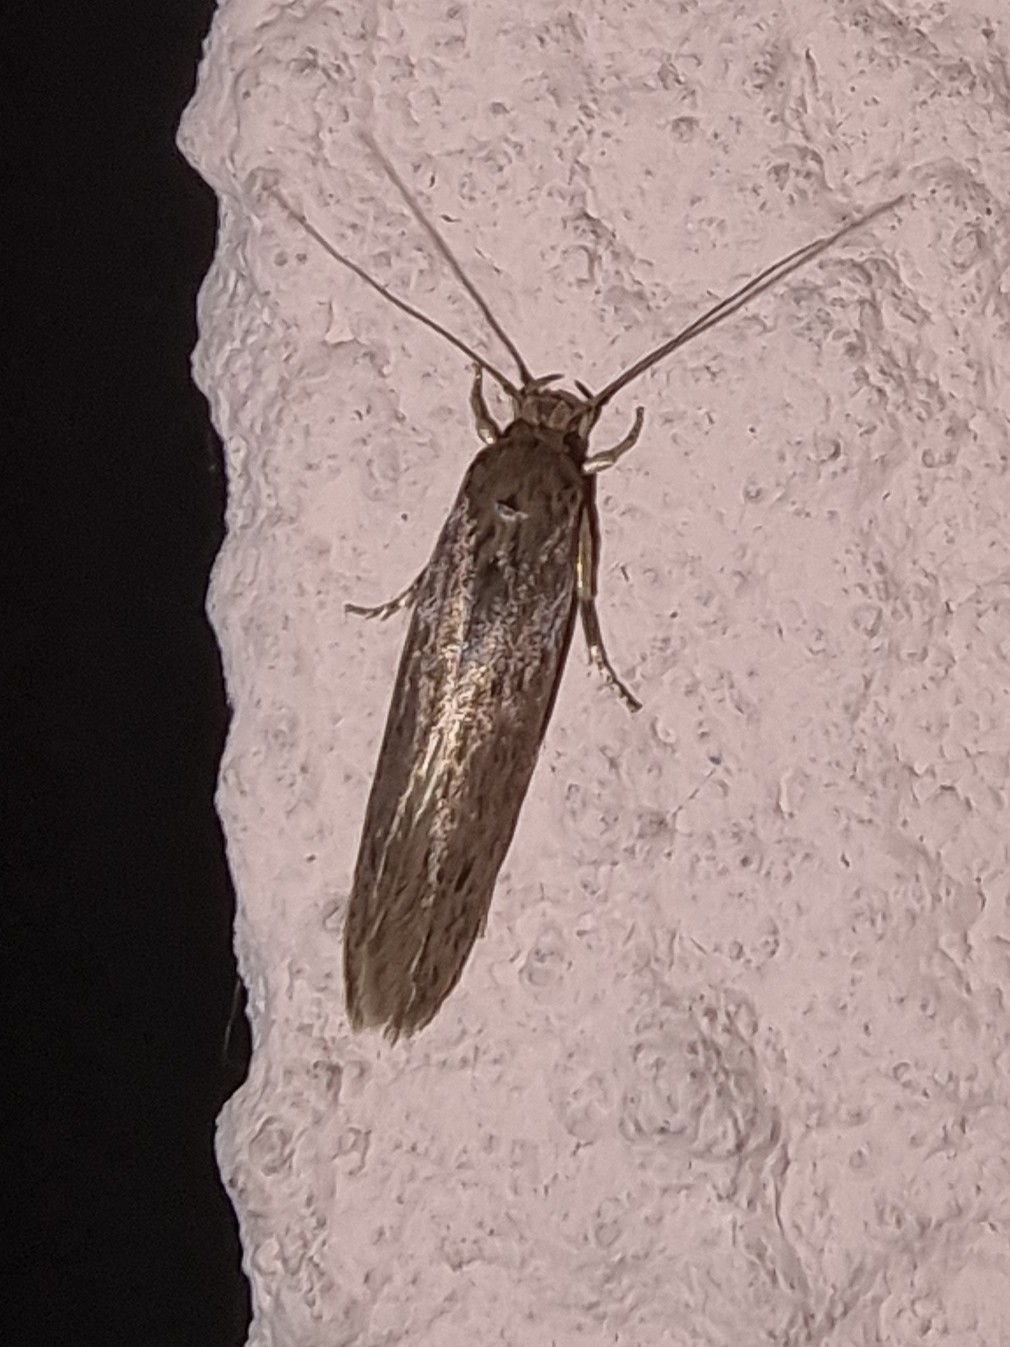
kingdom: Animalia
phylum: Arthropoda
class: Insecta
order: Lepidoptera
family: Tineidae
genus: Opogona
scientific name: Opogona sacchari
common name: Banana bud moth
